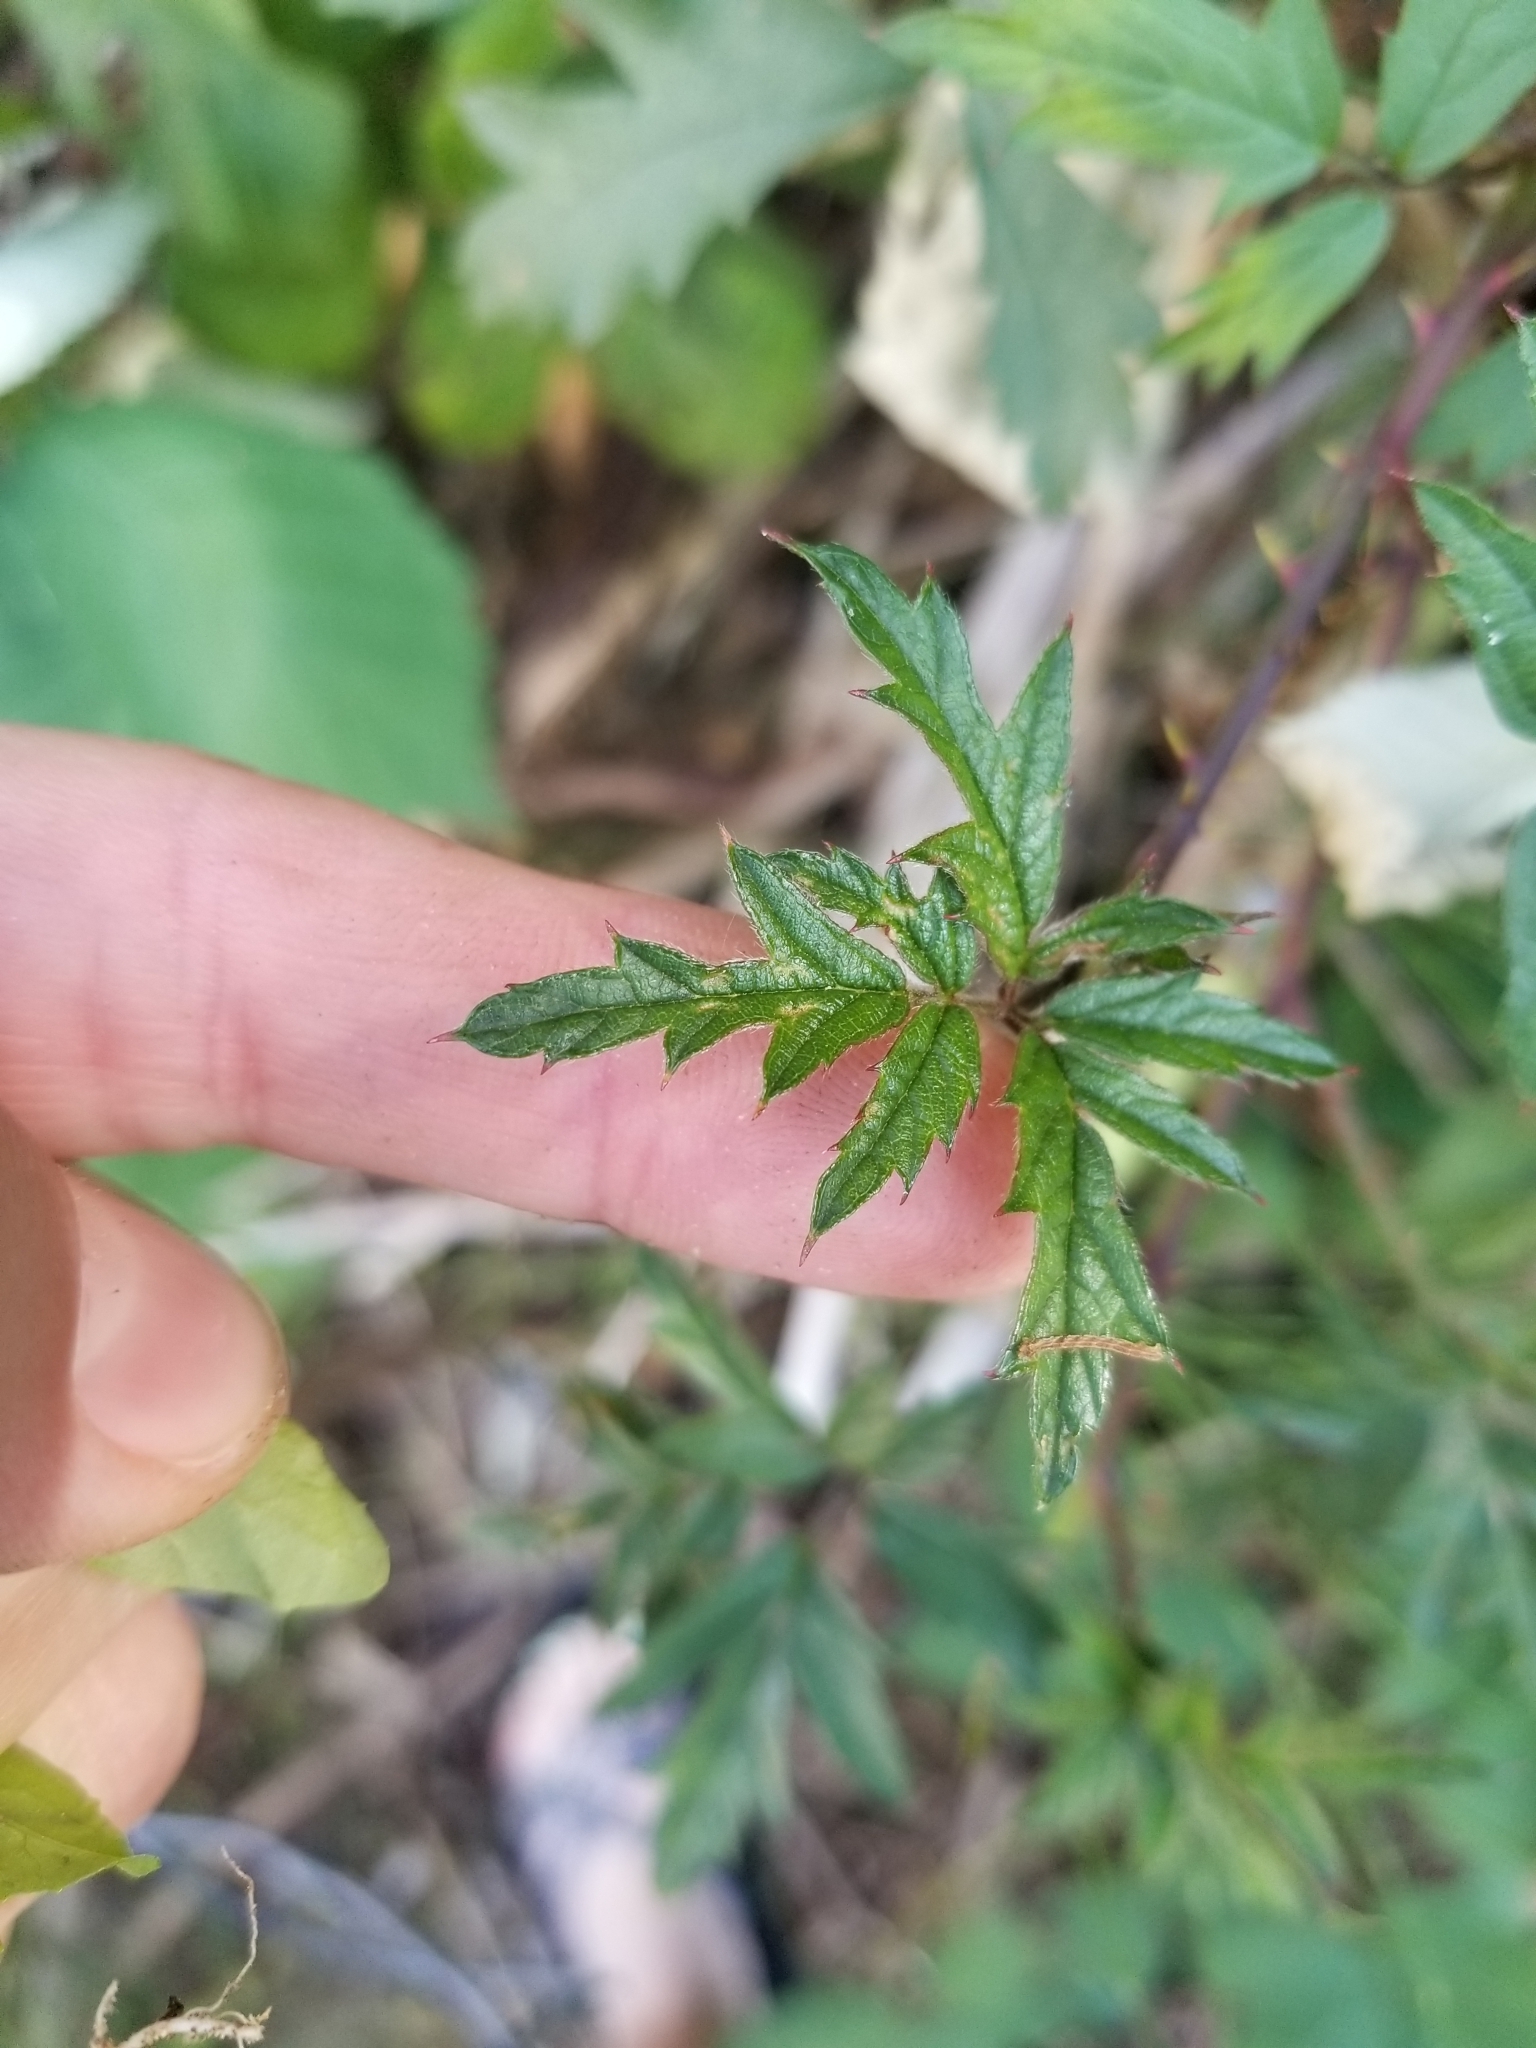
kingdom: Plantae
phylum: Tracheophyta
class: Magnoliopsida
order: Rosales
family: Rosaceae
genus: Rubus
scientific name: Rubus laciniatus
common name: Evergreen blackberry
